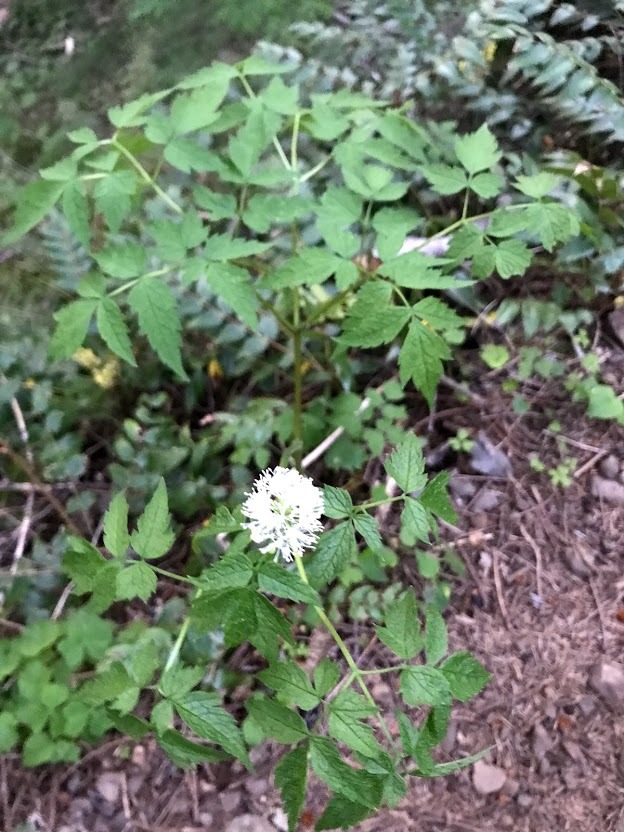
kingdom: Plantae
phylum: Tracheophyta
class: Magnoliopsida
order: Ranunculales
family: Ranunculaceae
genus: Actaea
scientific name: Actaea rubra
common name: Red baneberry
